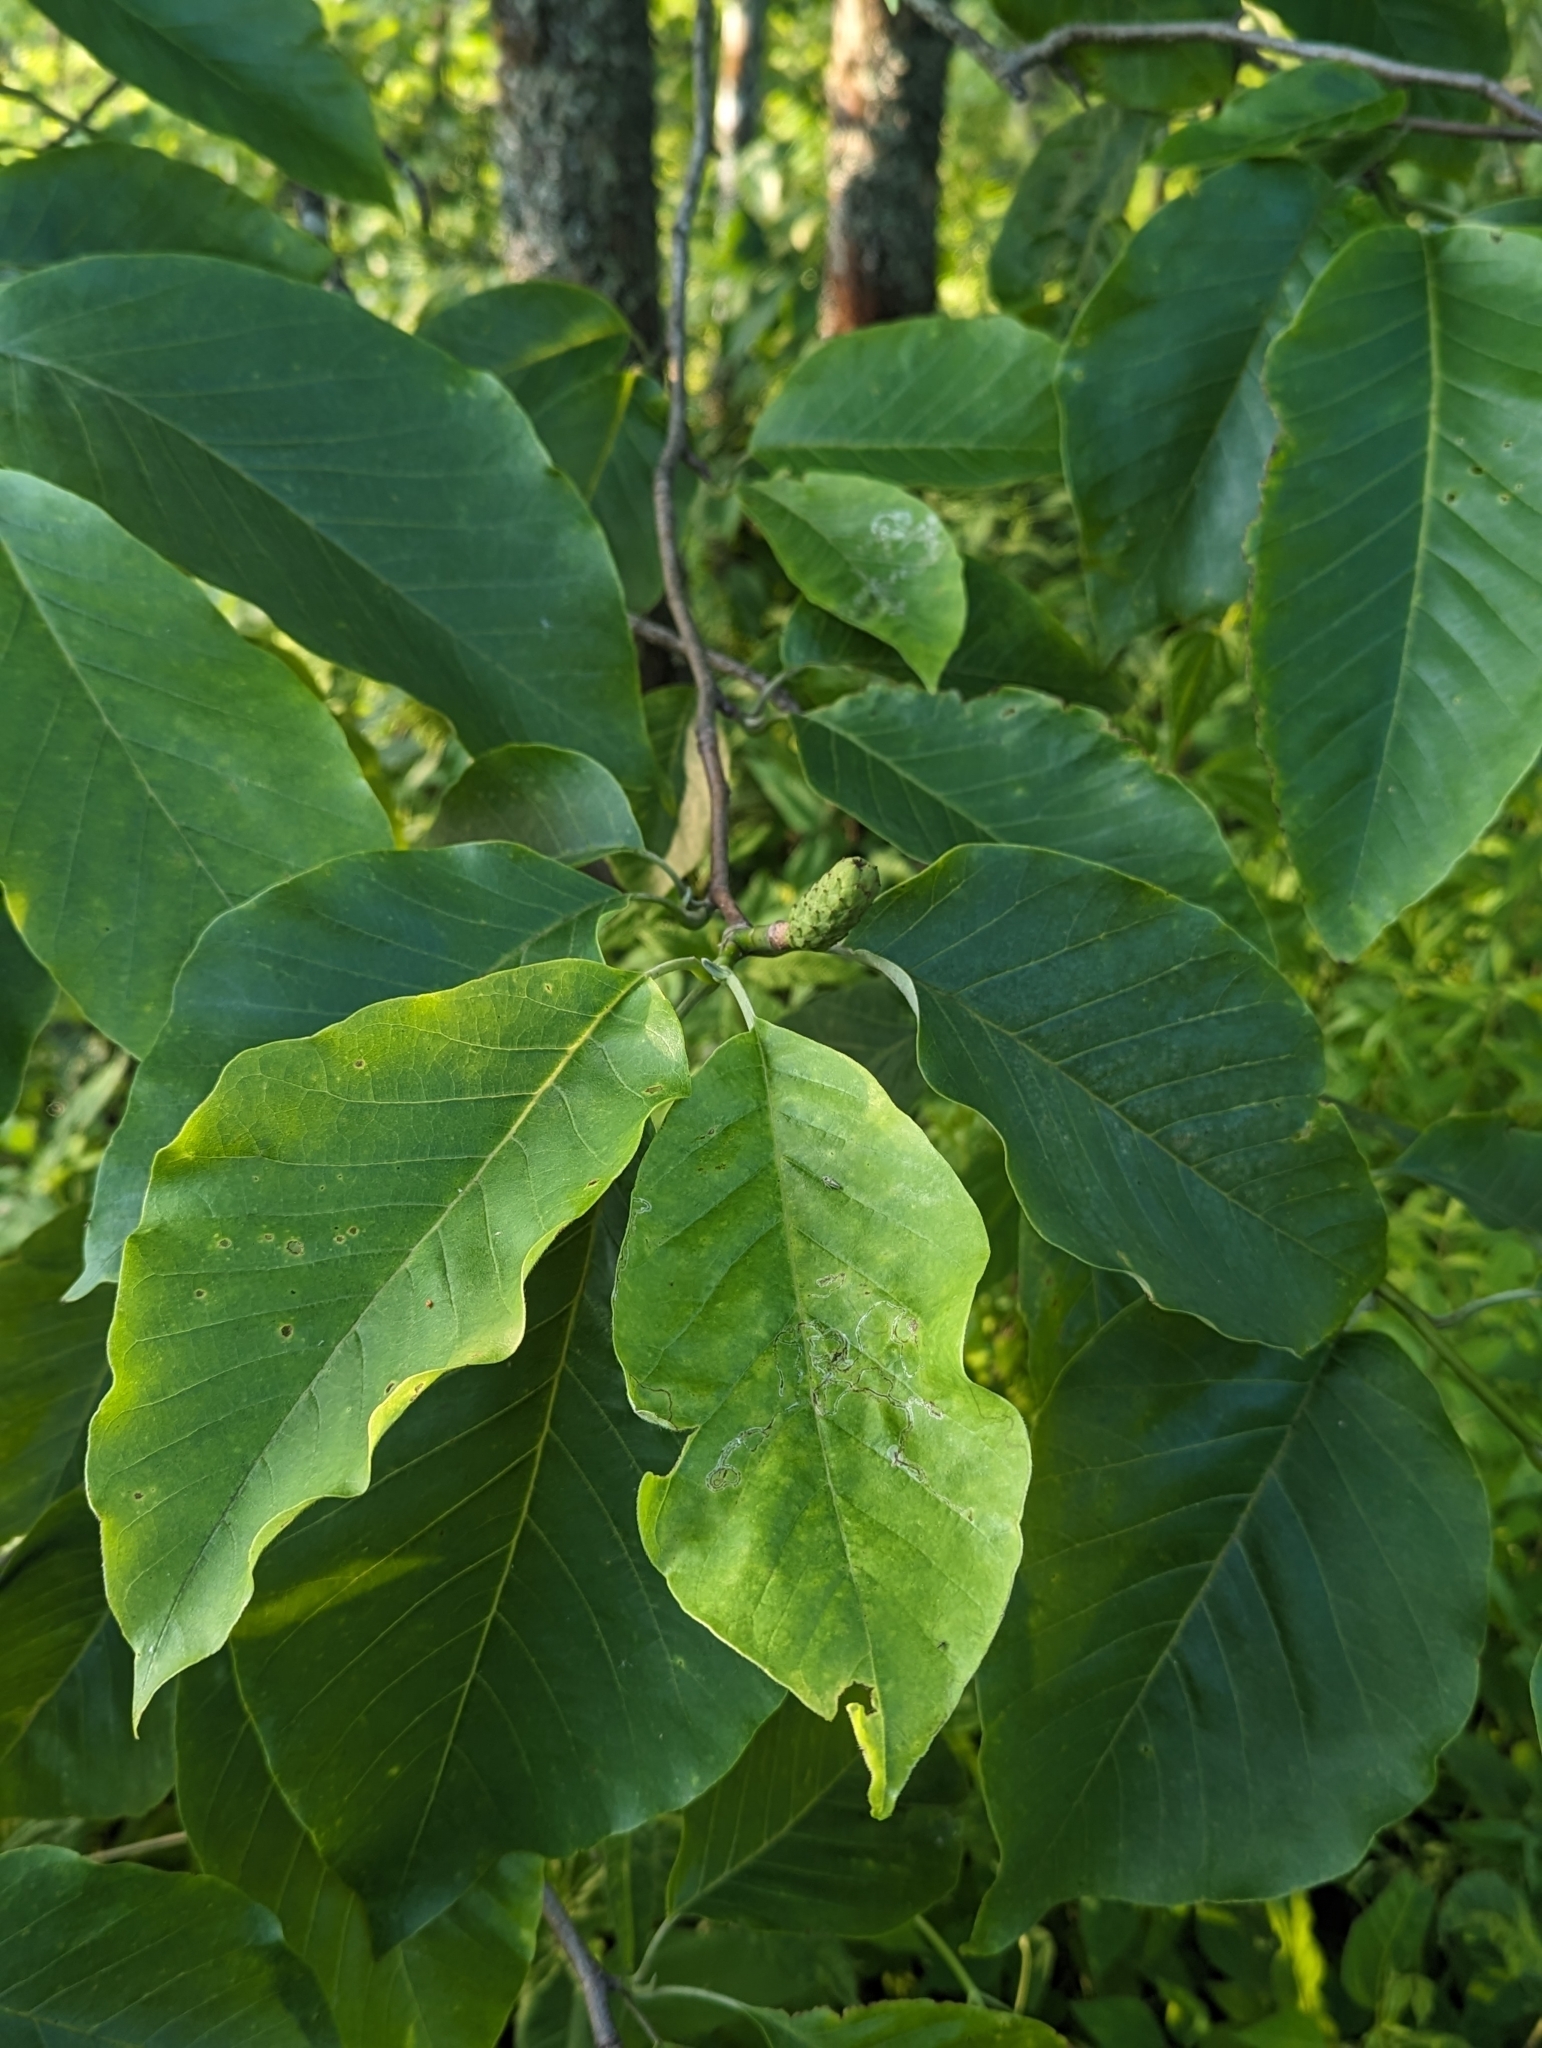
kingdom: Plantae
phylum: Tracheophyta
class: Magnoliopsida
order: Magnoliales
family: Magnoliaceae
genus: Magnolia
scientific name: Magnolia acuminata
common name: Cucumber magnolia
